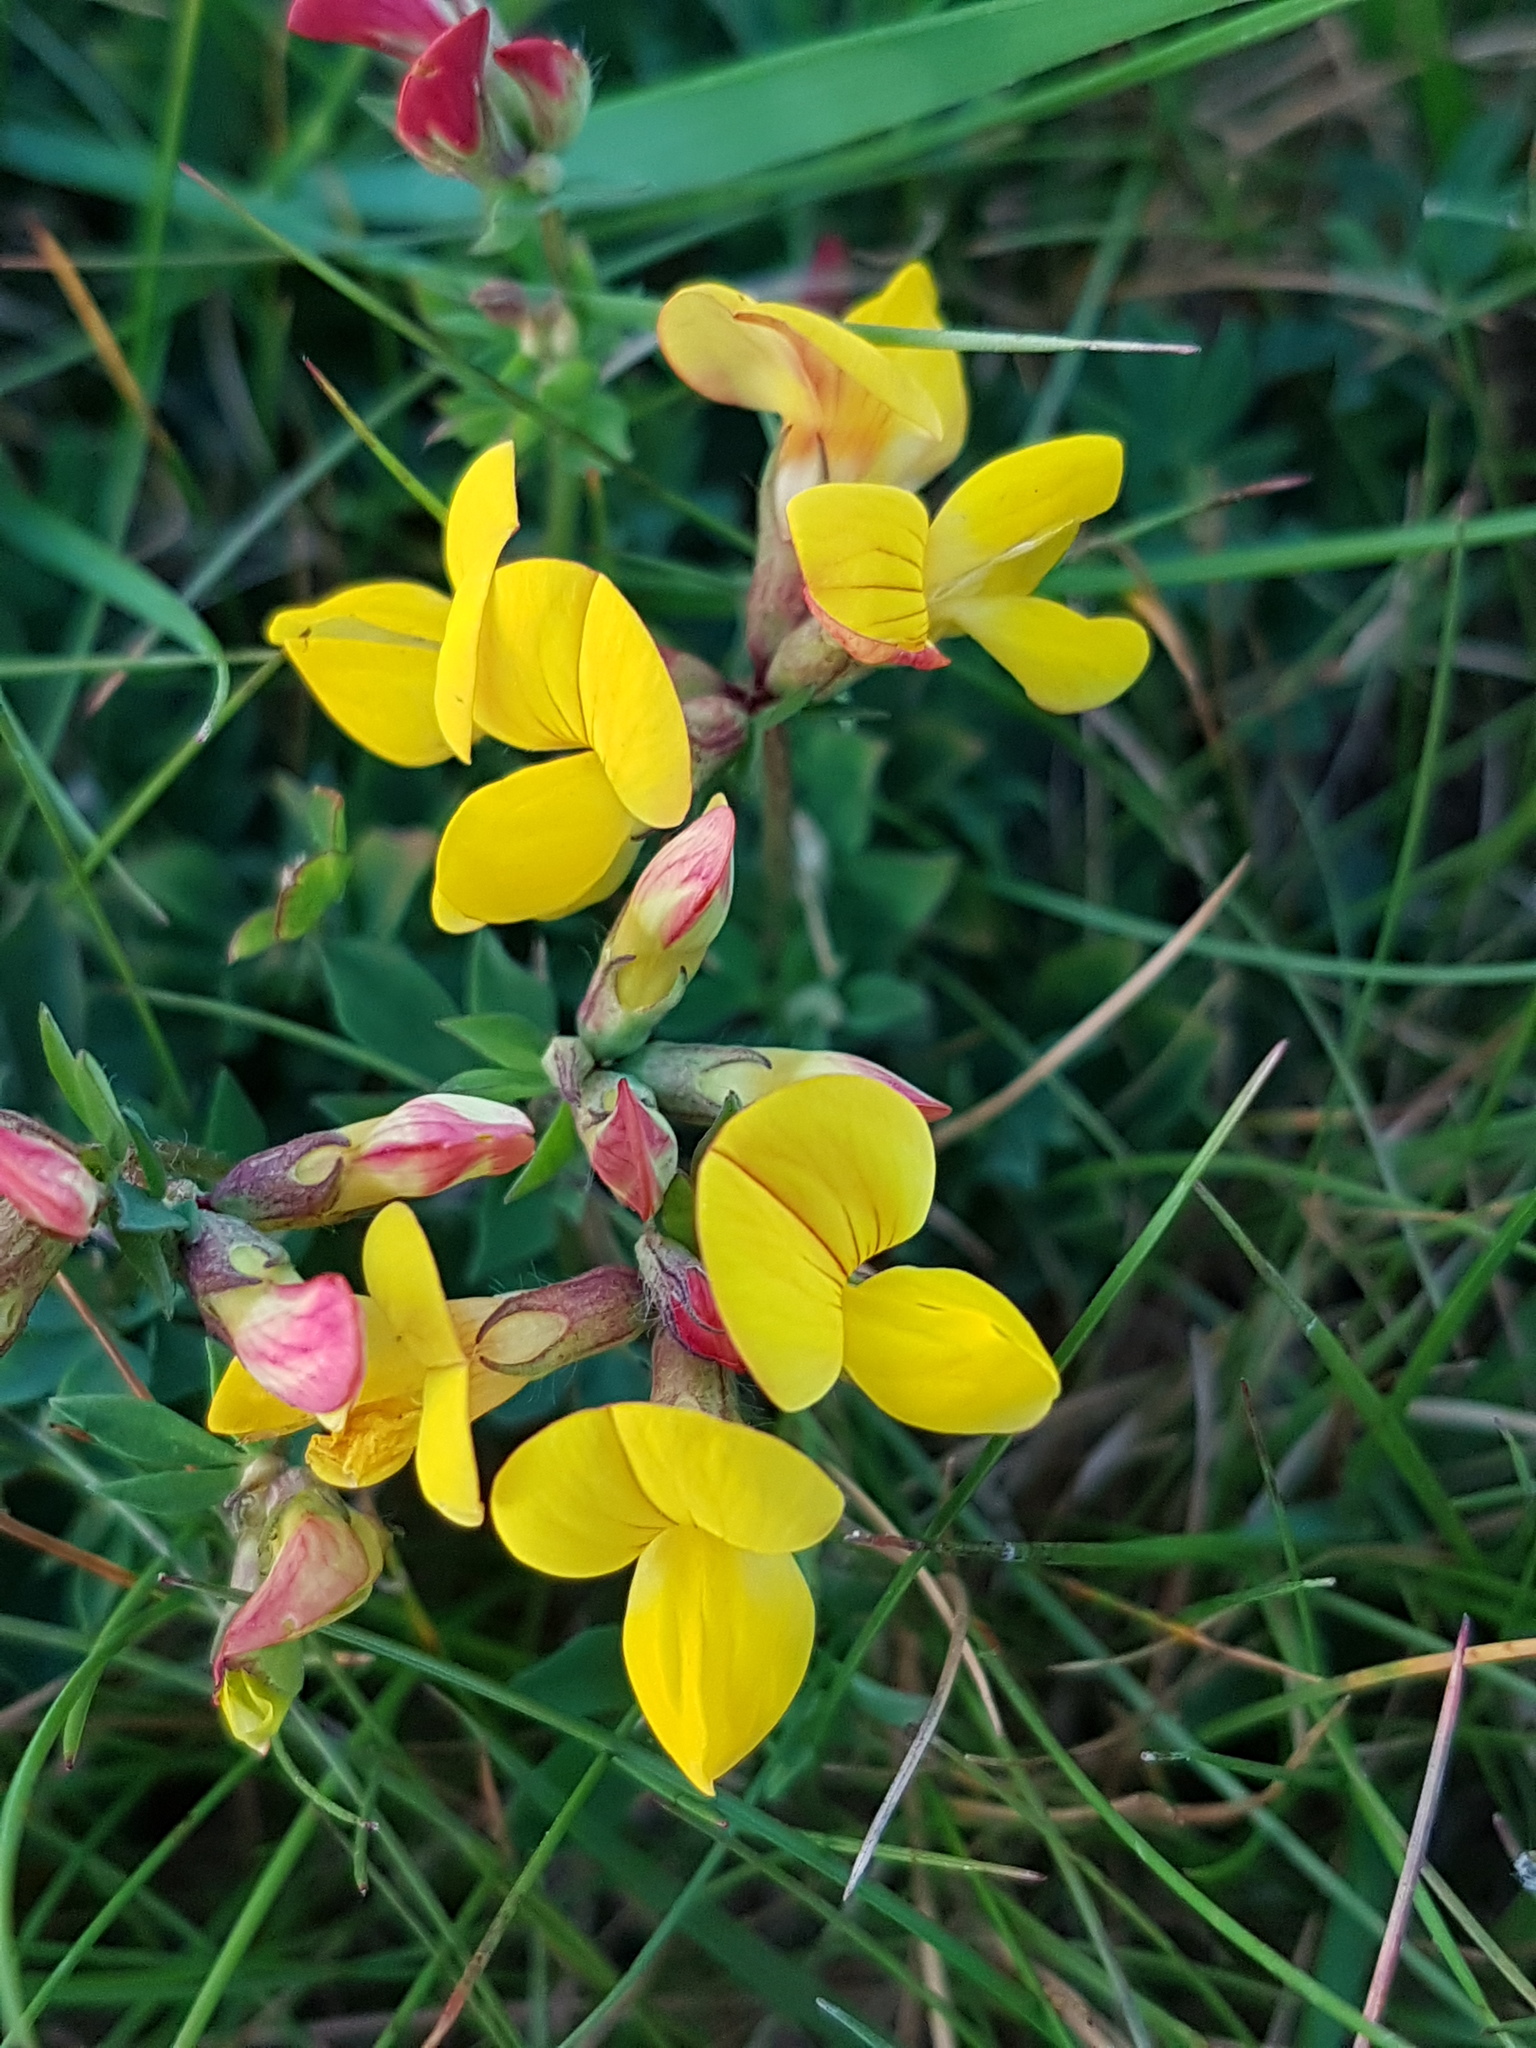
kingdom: Plantae
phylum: Tracheophyta
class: Magnoliopsida
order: Fabales
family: Fabaceae
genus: Lotus
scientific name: Lotus corniculatus
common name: Common bird's-foot-trefoil
